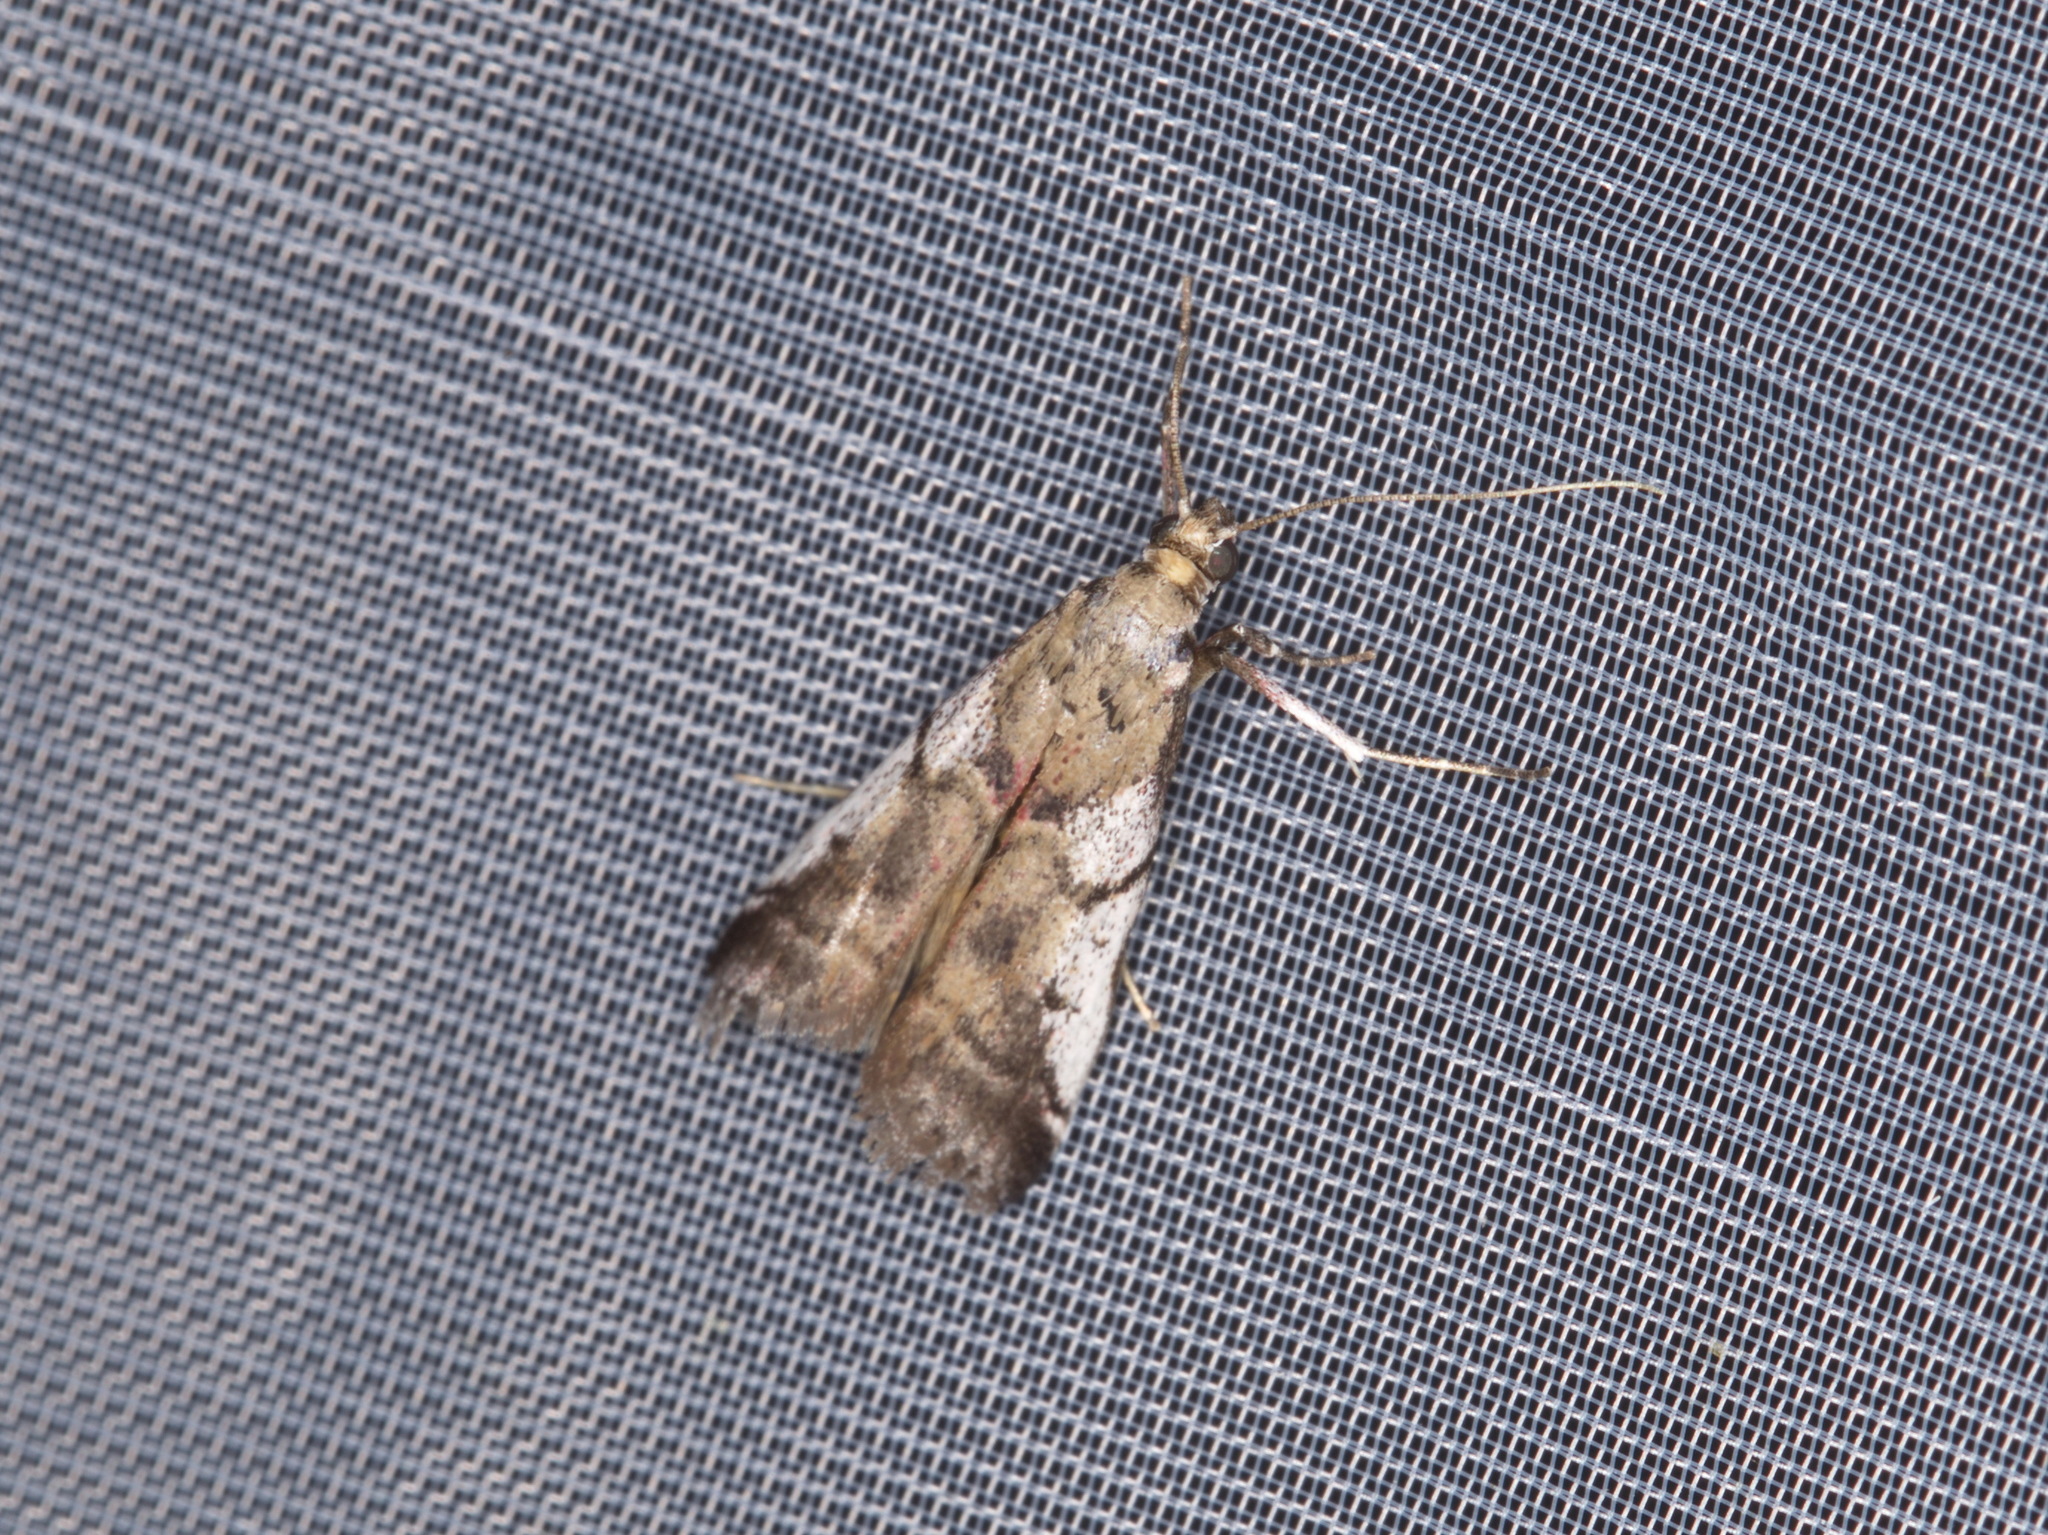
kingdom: Animalia
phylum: Arthropoda
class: Insecta
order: Lepidoptera
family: Pyralidae
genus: Assara
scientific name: Assara holophragma
